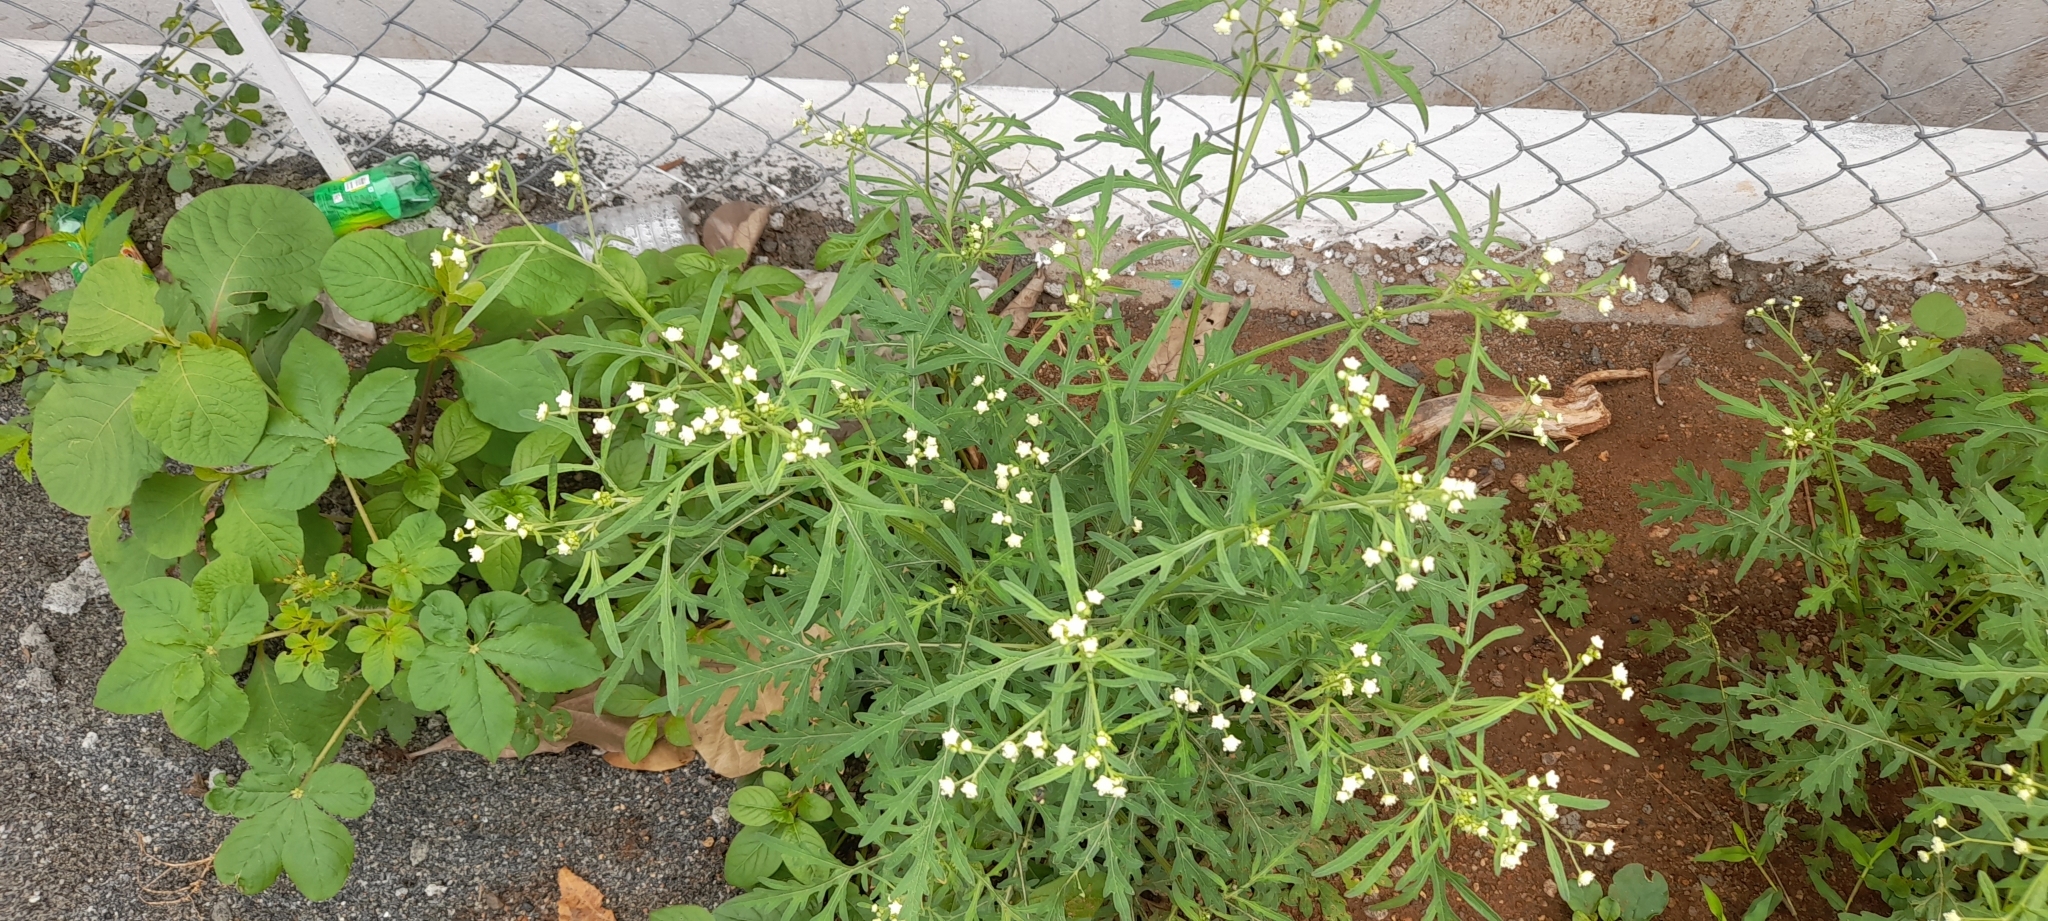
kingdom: Plantae
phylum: Tracheophyta
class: Magnoliopsida
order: Asterales
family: Asteraceae
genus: Parthenium
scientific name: Parthenium hysterophorus
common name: Santa maria feverfew
